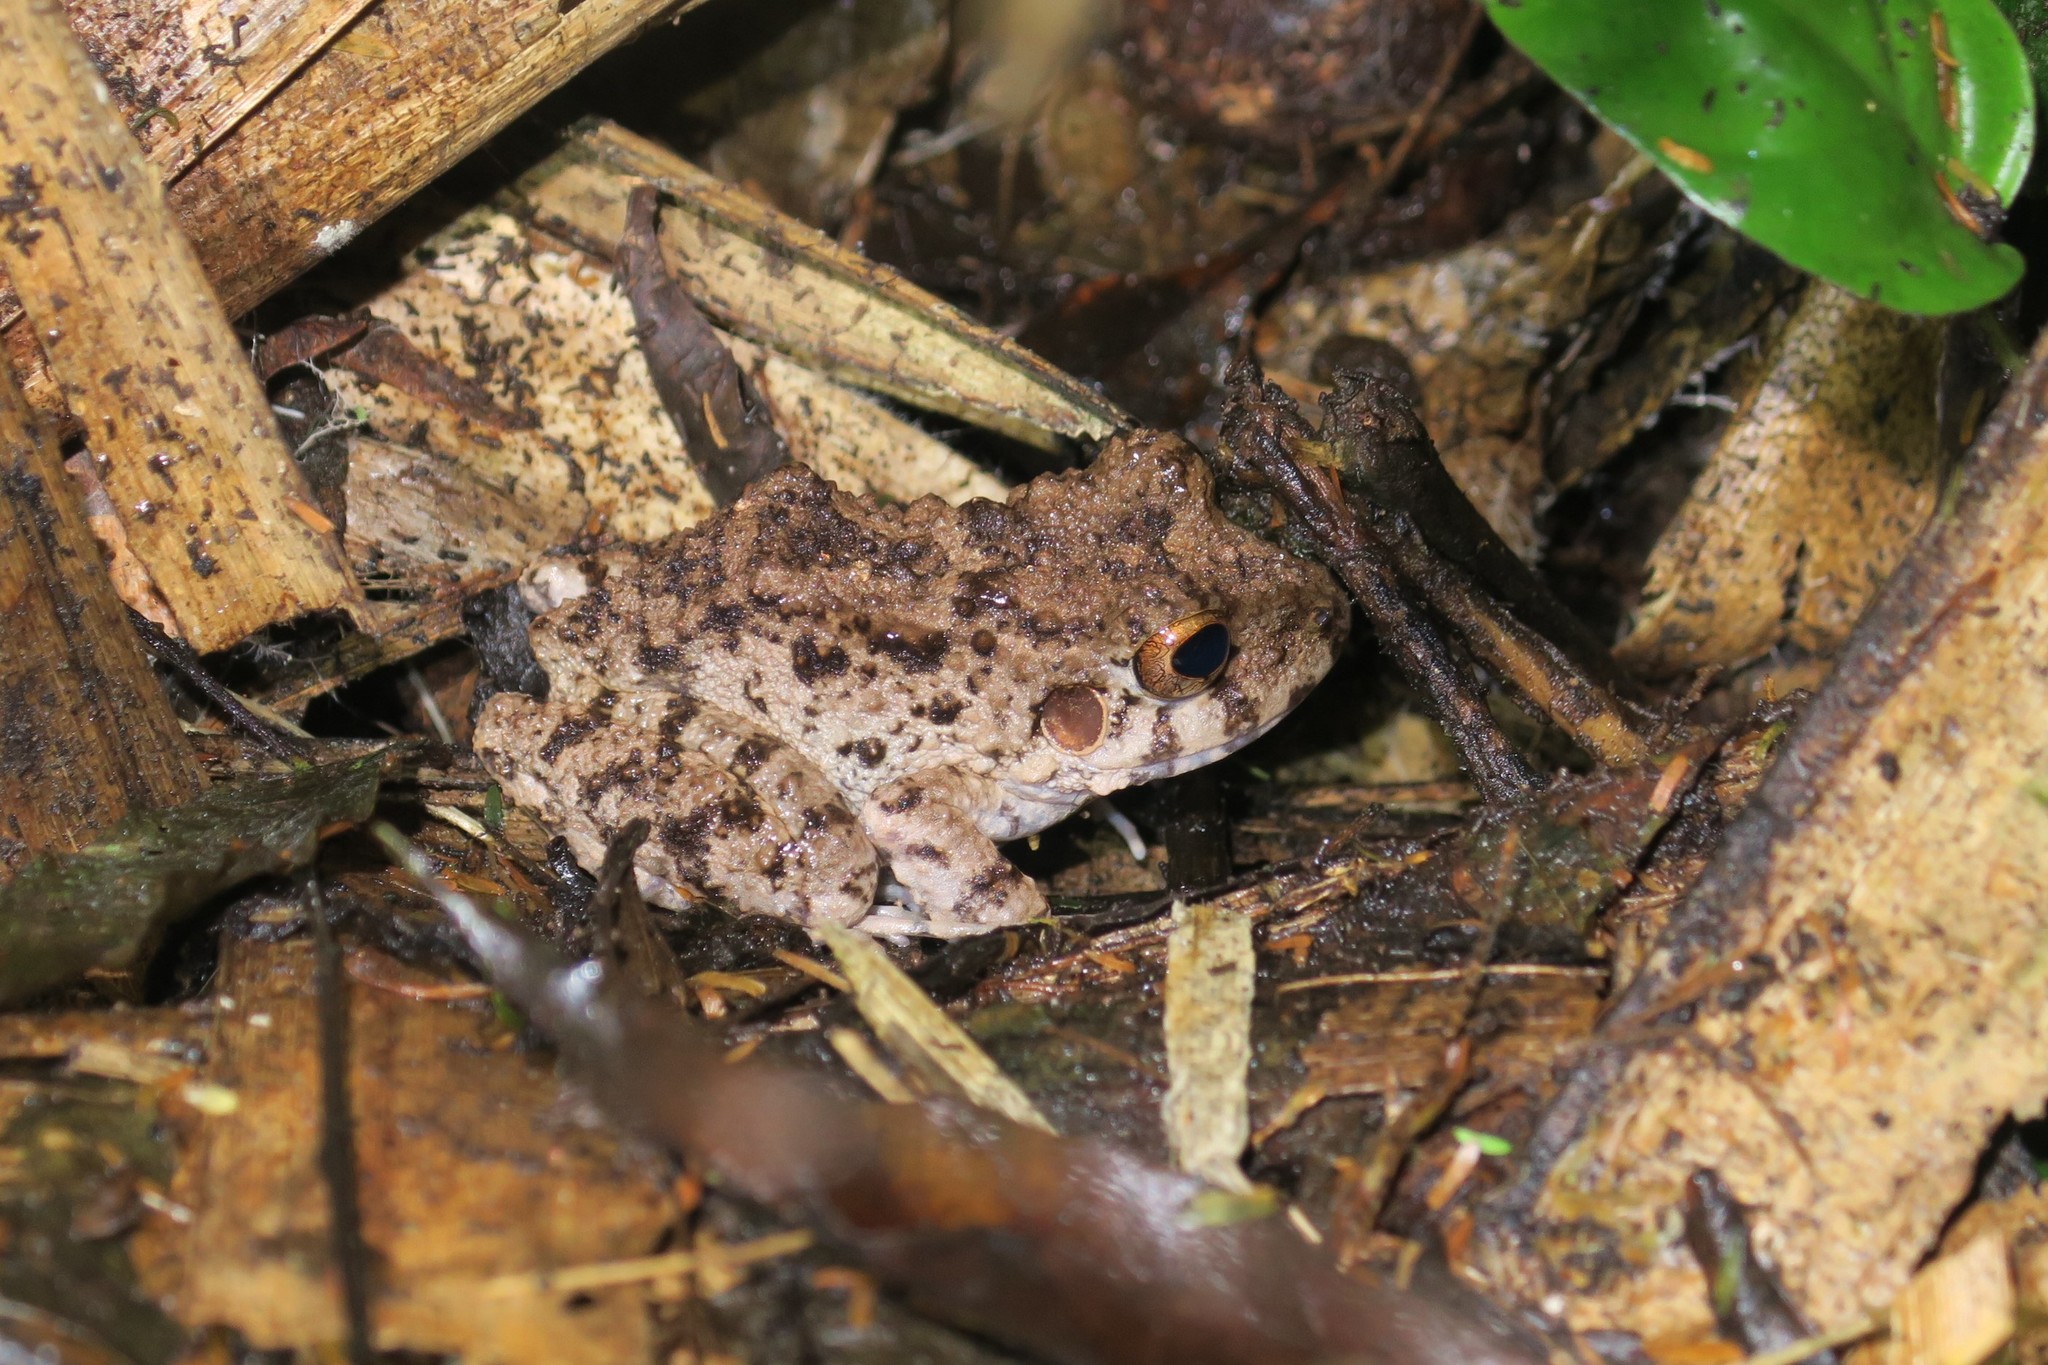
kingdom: Animalia
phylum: Chordata
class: Amphibia
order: Anura
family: Craugastoridae
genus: Oreobates
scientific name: Oreobates quixensis
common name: Common big-headed frog
